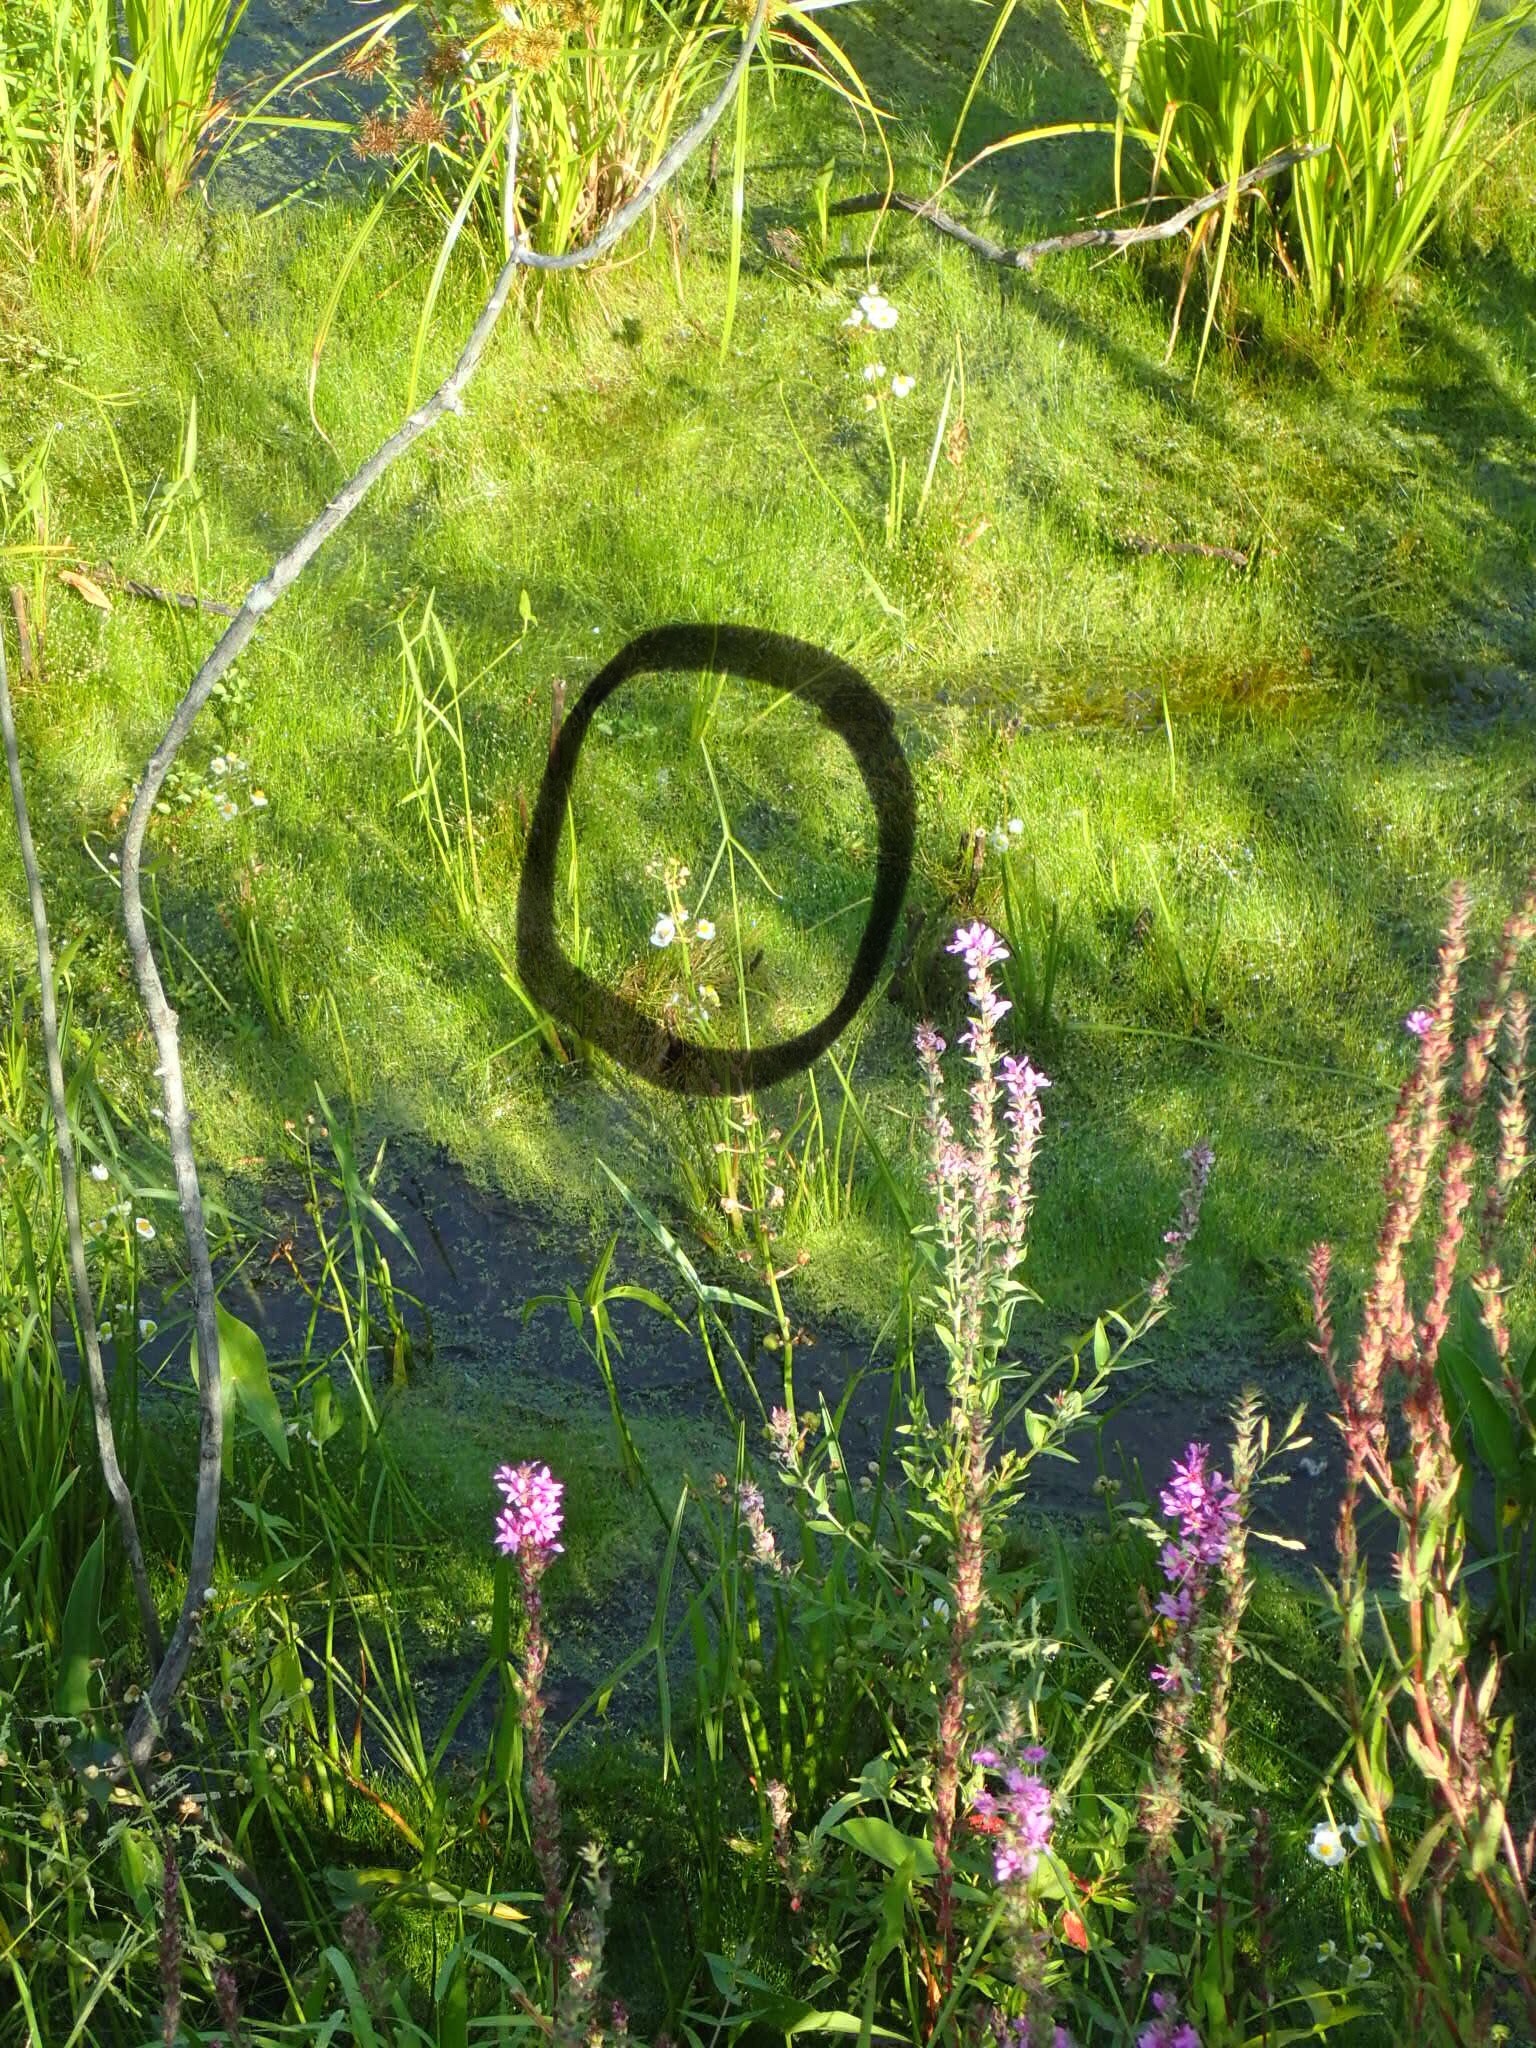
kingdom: Plantae
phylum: Tracheophyta
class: Liliopsida
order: Alismatales
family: Alismataceae
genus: Sagittaria
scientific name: Sagittaria latifolia
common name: Duck-potato
